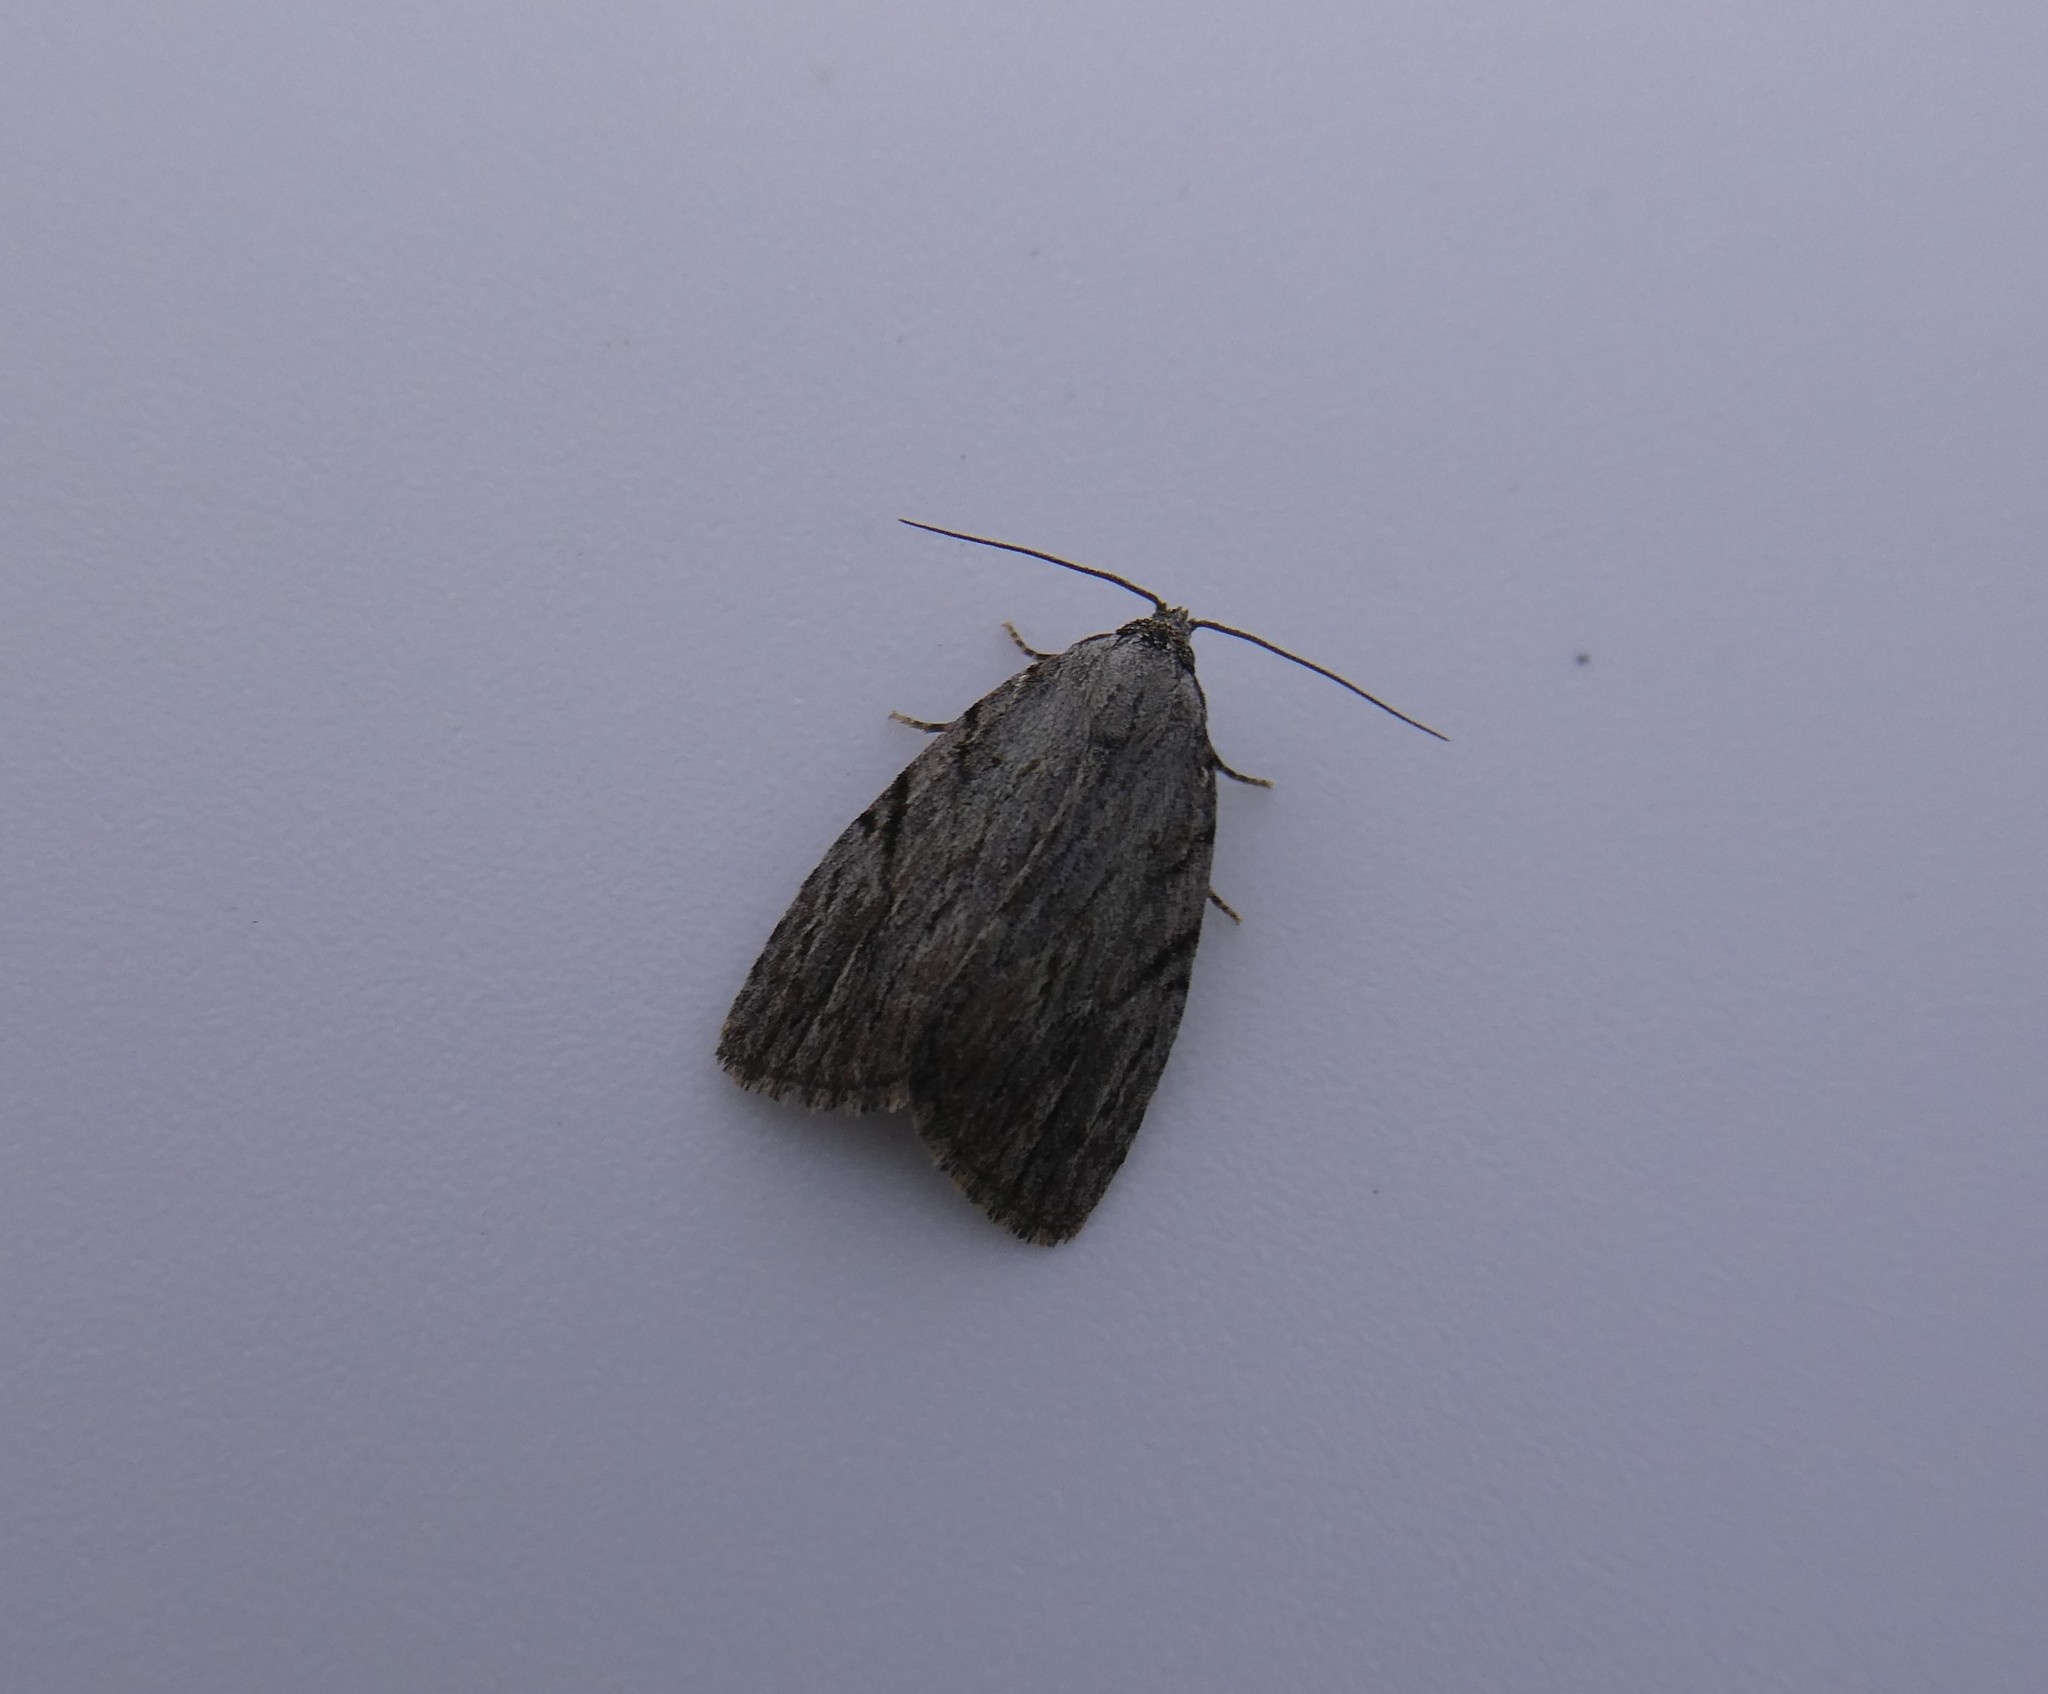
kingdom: Animalia
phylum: Arthropoda
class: Insecta
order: Lepidoptera
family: Noctuidae
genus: Balsa
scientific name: Balsa tristrigella
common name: Three-lined balsa moth
